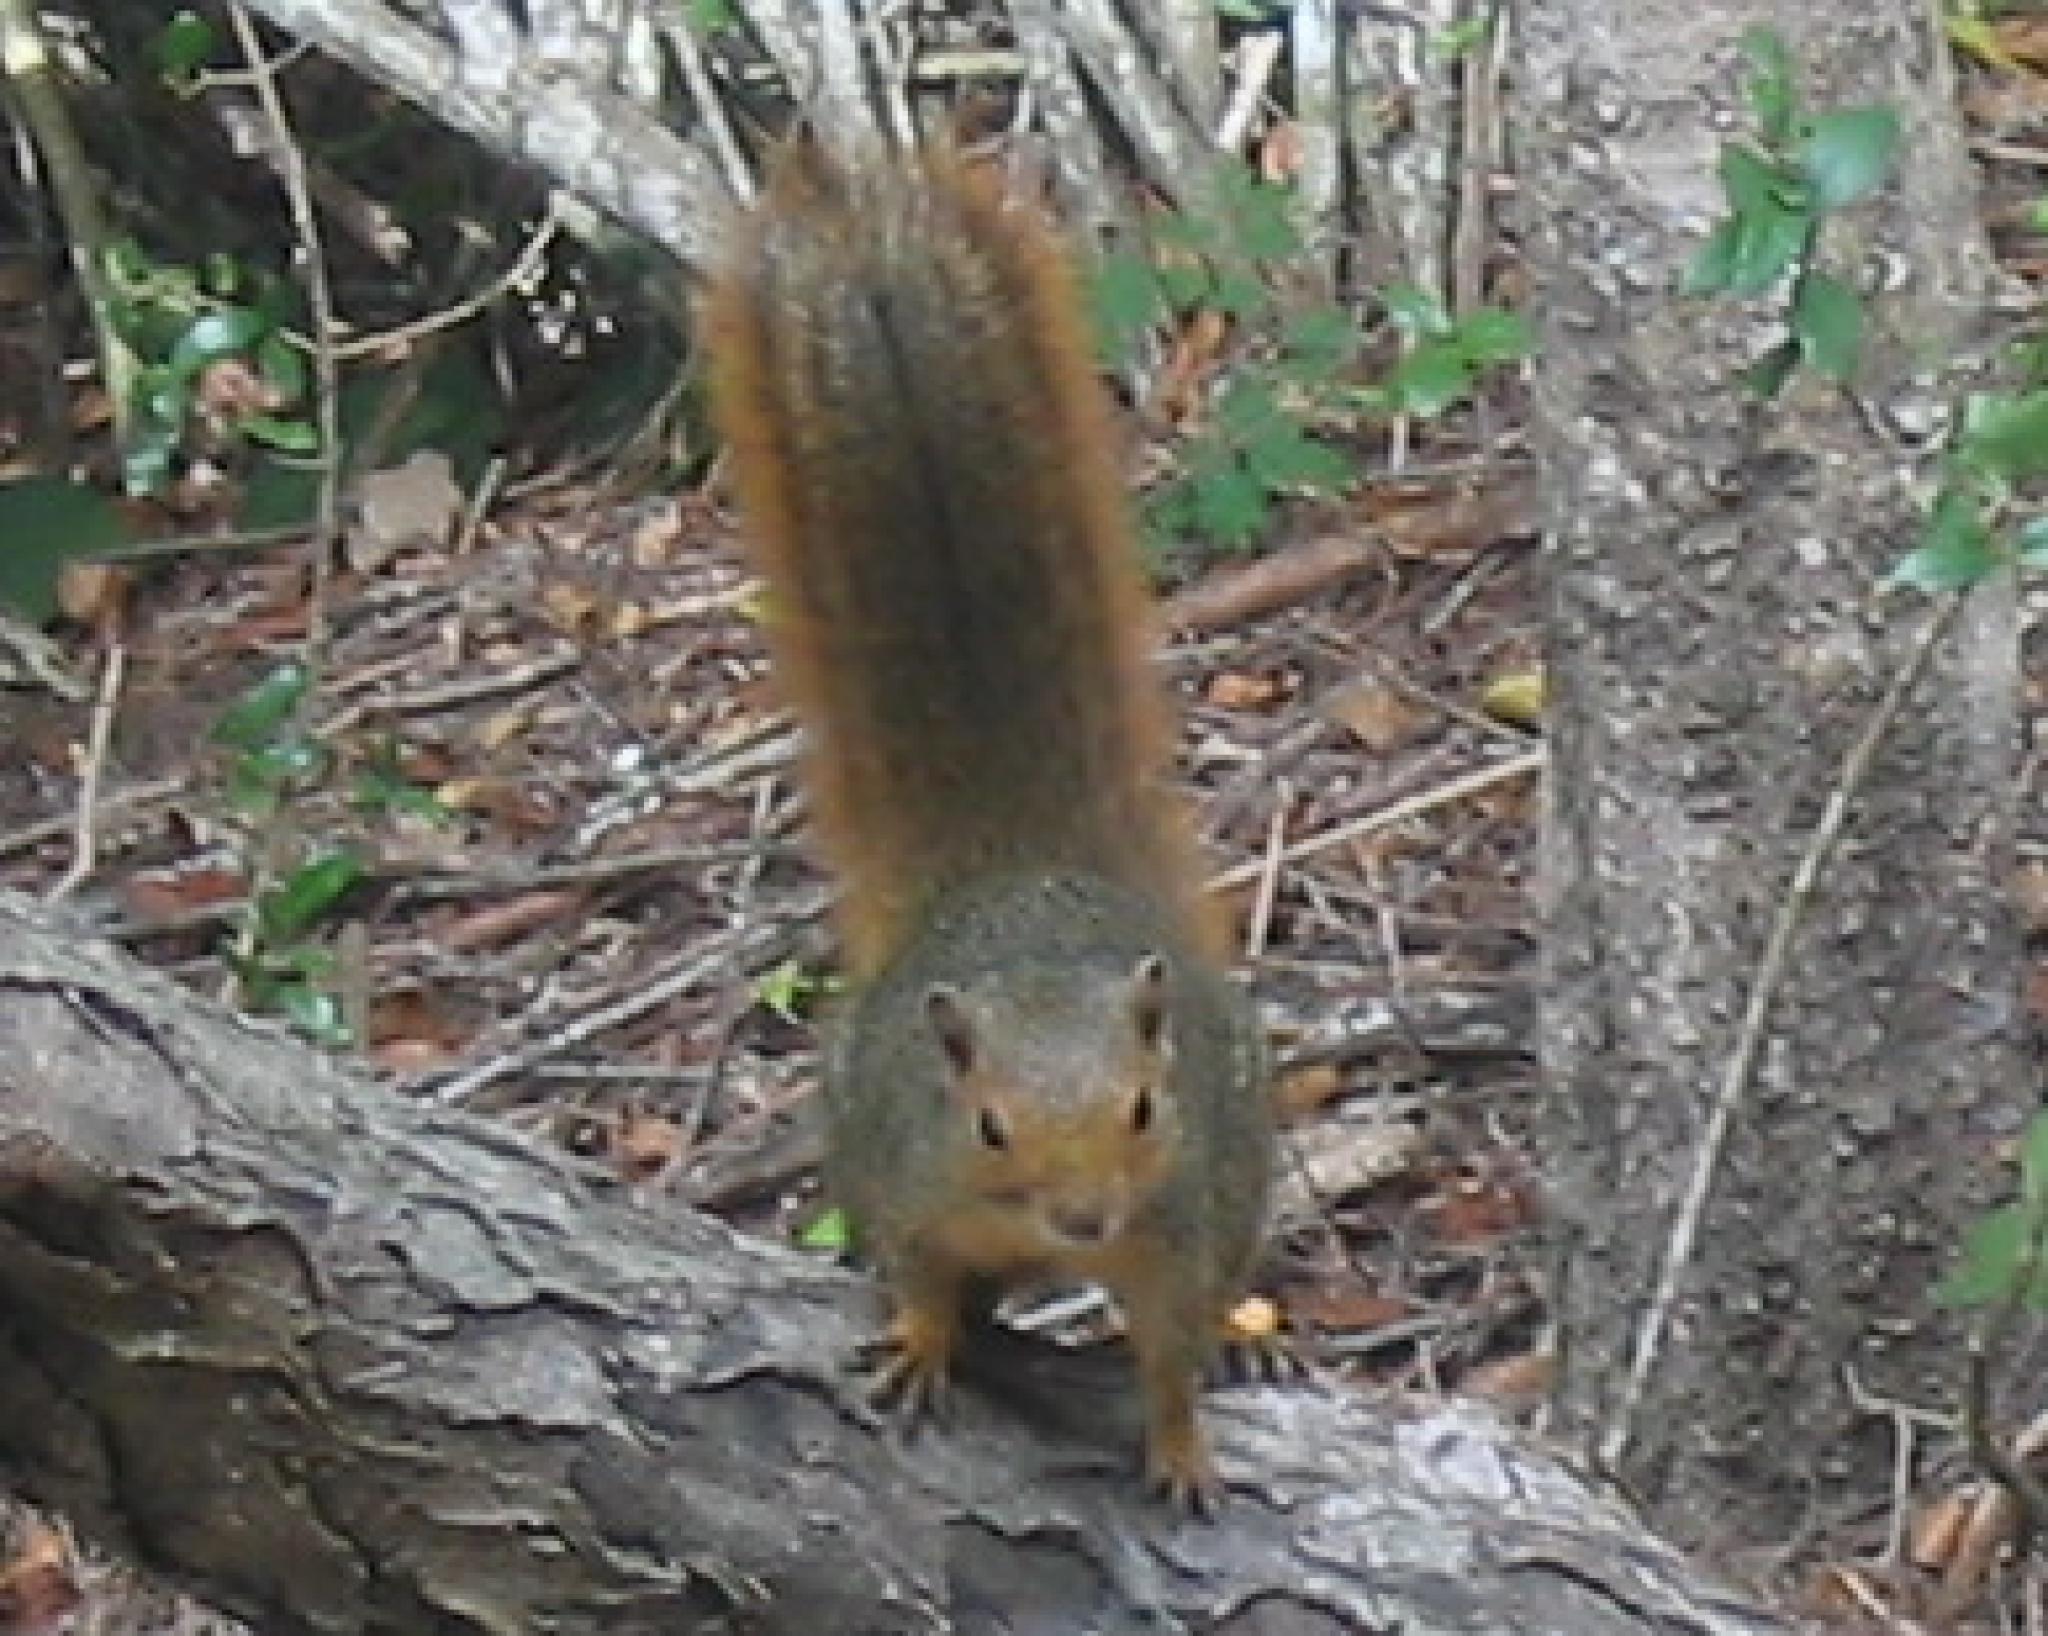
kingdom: Animalia
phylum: Chordata
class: Mammalia
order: Rodentia
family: Sciuridae
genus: Paraxerus
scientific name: Paraxerus palliatus
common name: Red bush squirrel
